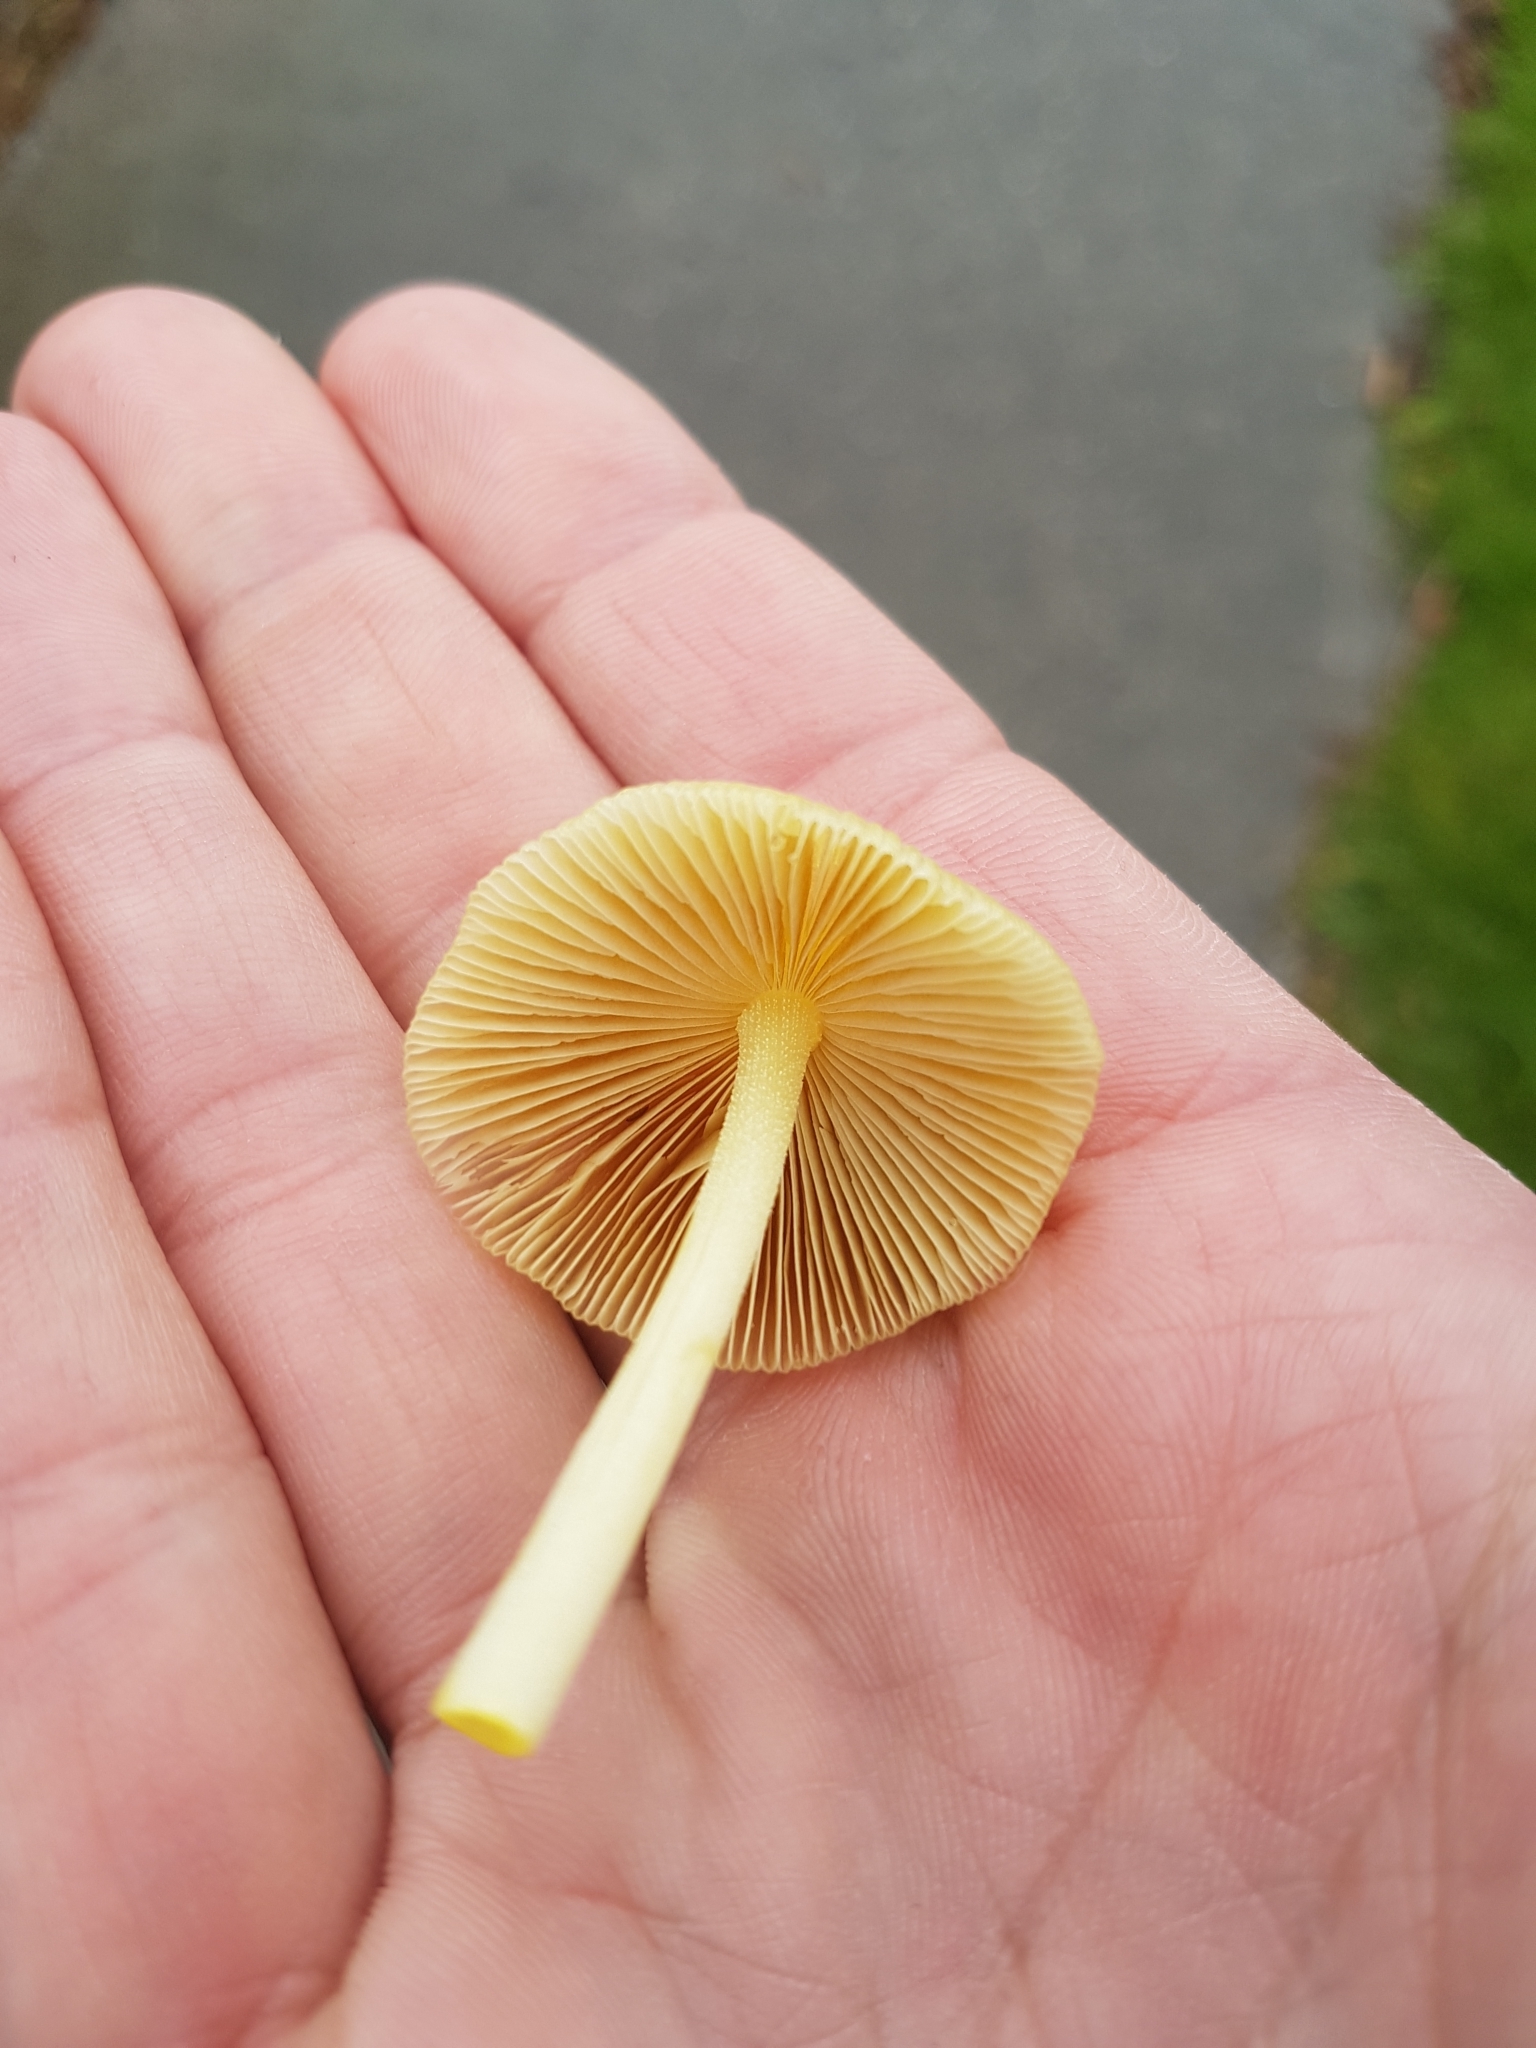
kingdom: Fungi
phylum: Basidiomycota
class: Agaricomycetes
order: Agaricales
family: Bolbitiaceae
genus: Bolbitius
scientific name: Bolbitius titubans
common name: Yellow fieldcap
